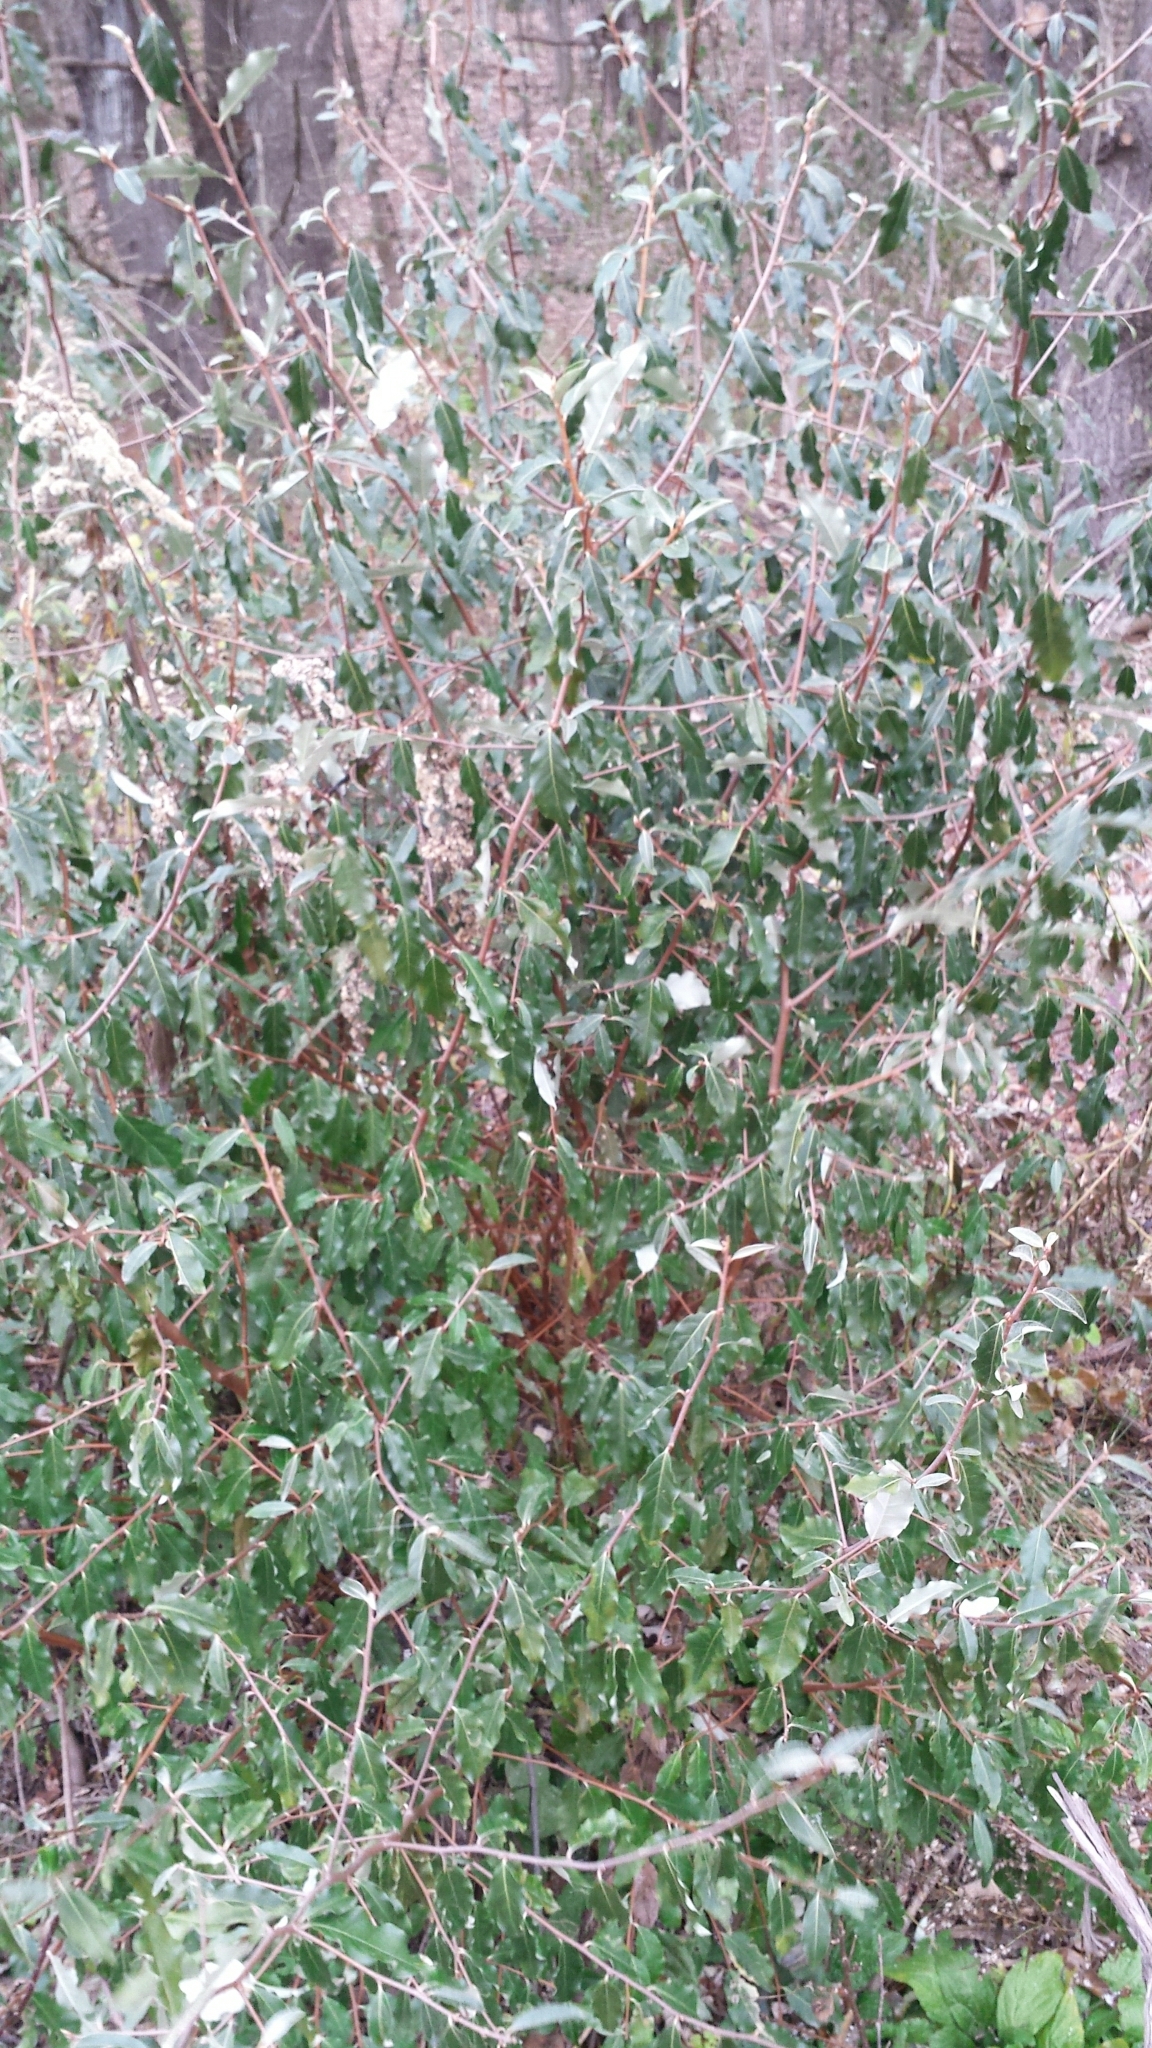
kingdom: Plantae
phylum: Tracheophyta
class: Magnoliopsida
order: Rosales
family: Elaeagnaceae
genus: Elaeagnus
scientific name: Elaeagnus umbellata
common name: Autumn olive
